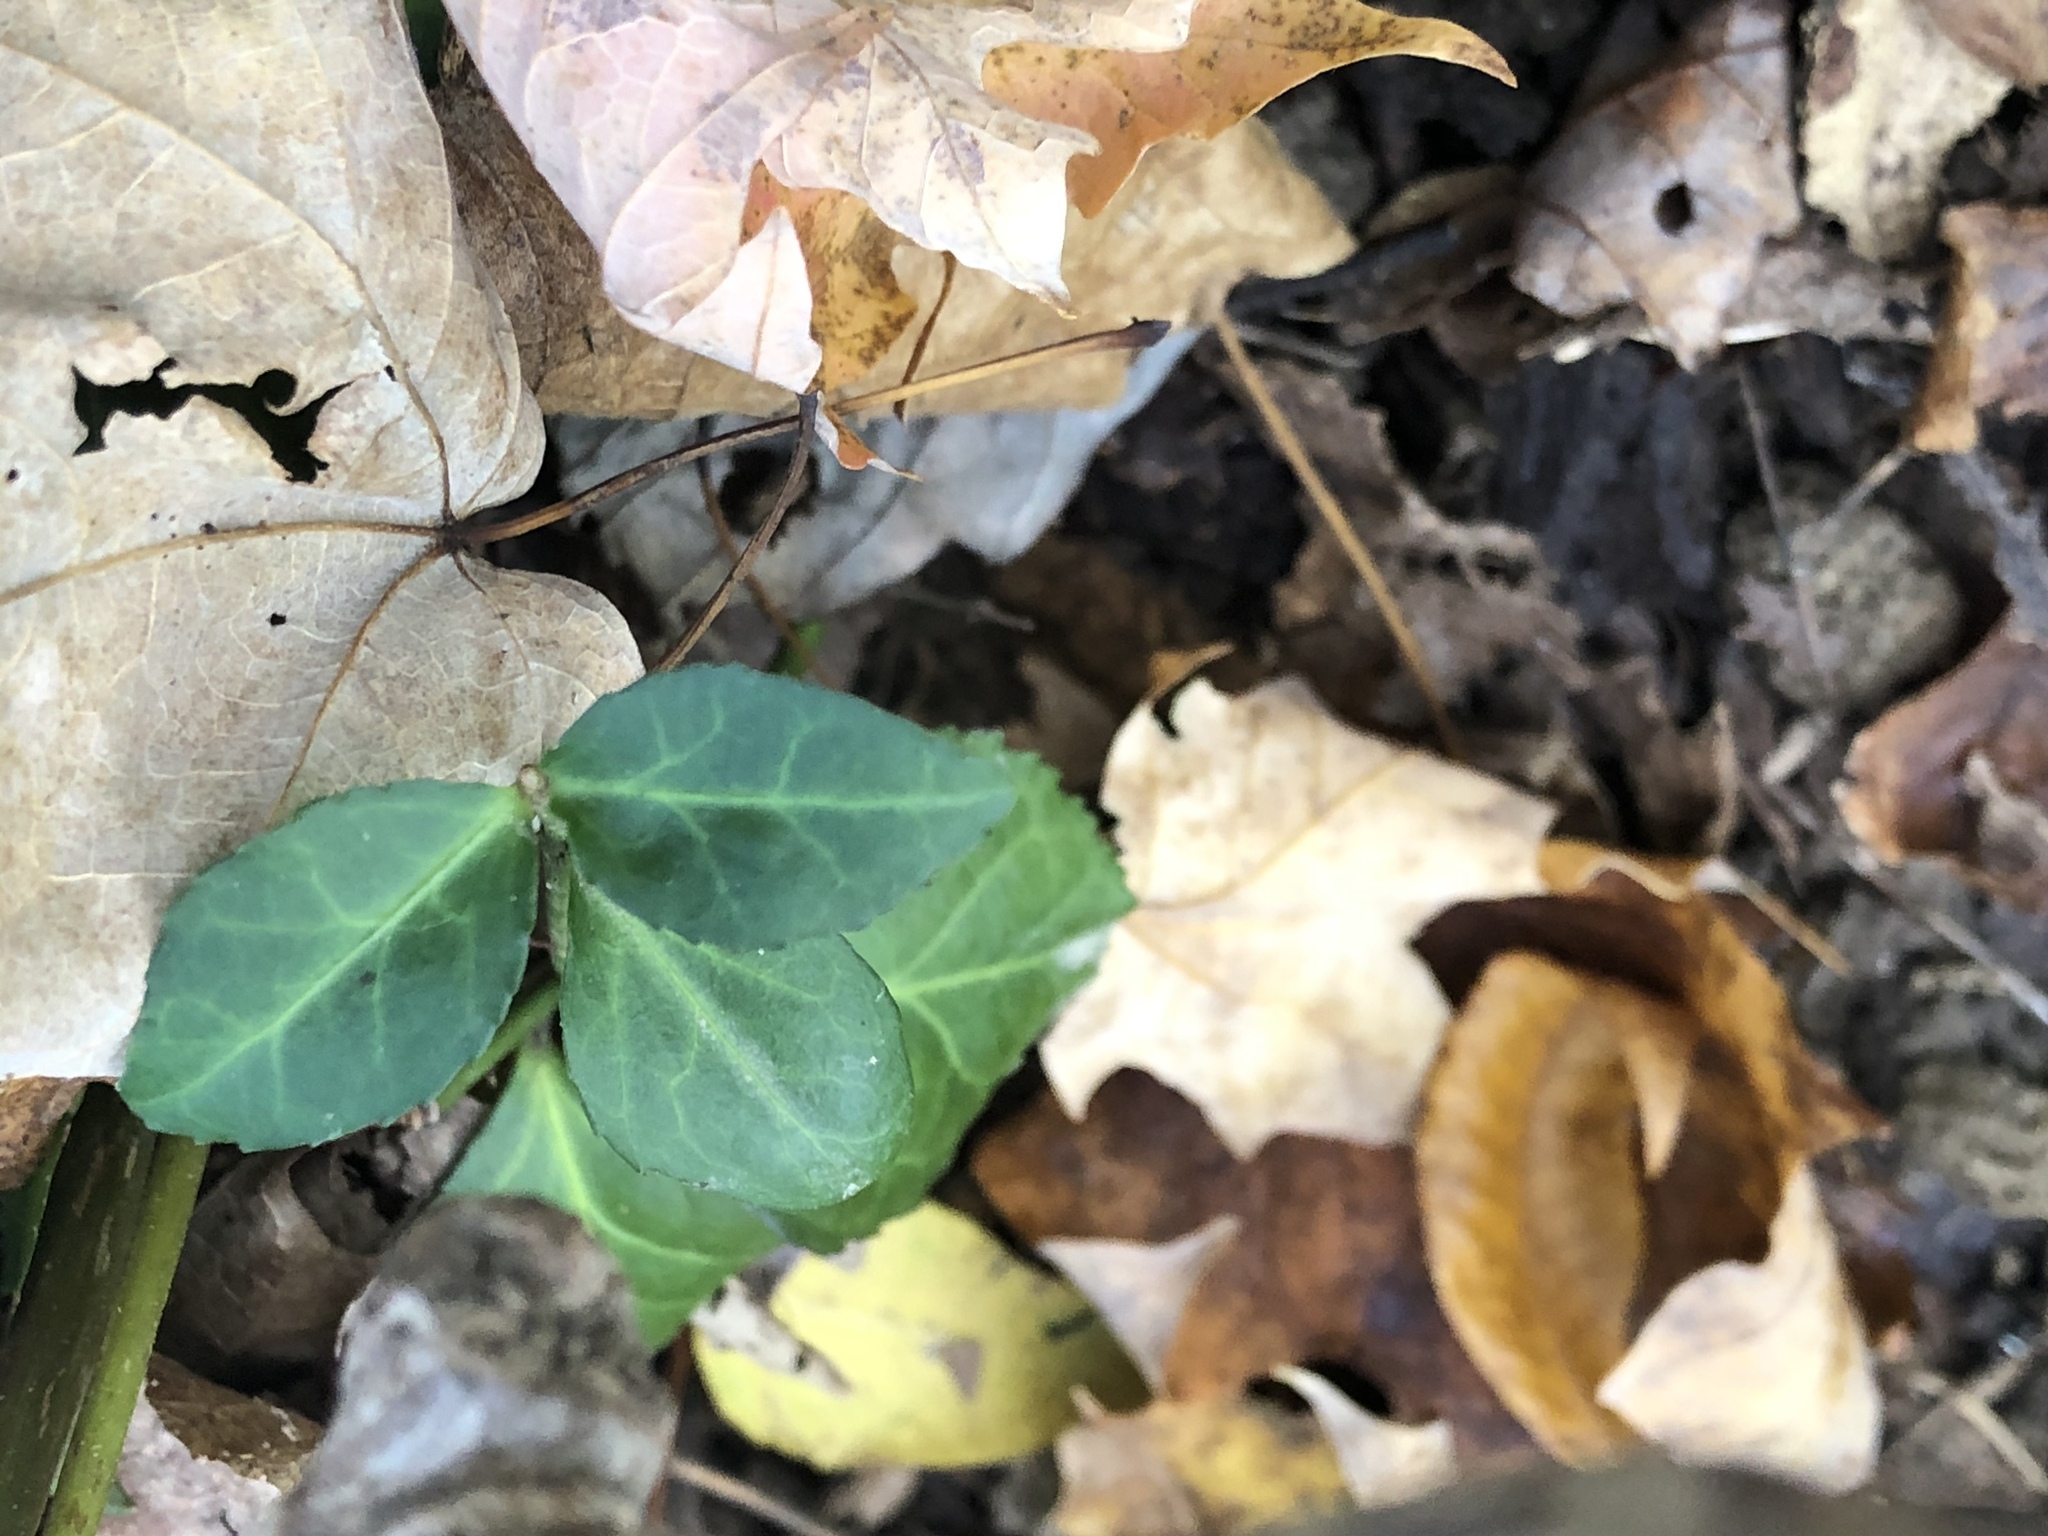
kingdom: Plantae
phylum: Tracheophyta
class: Magnoliopsida
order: Celastrales
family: Celastraceae
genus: Euonymus
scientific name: Euonymus fortunei
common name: Climbing euonymus
